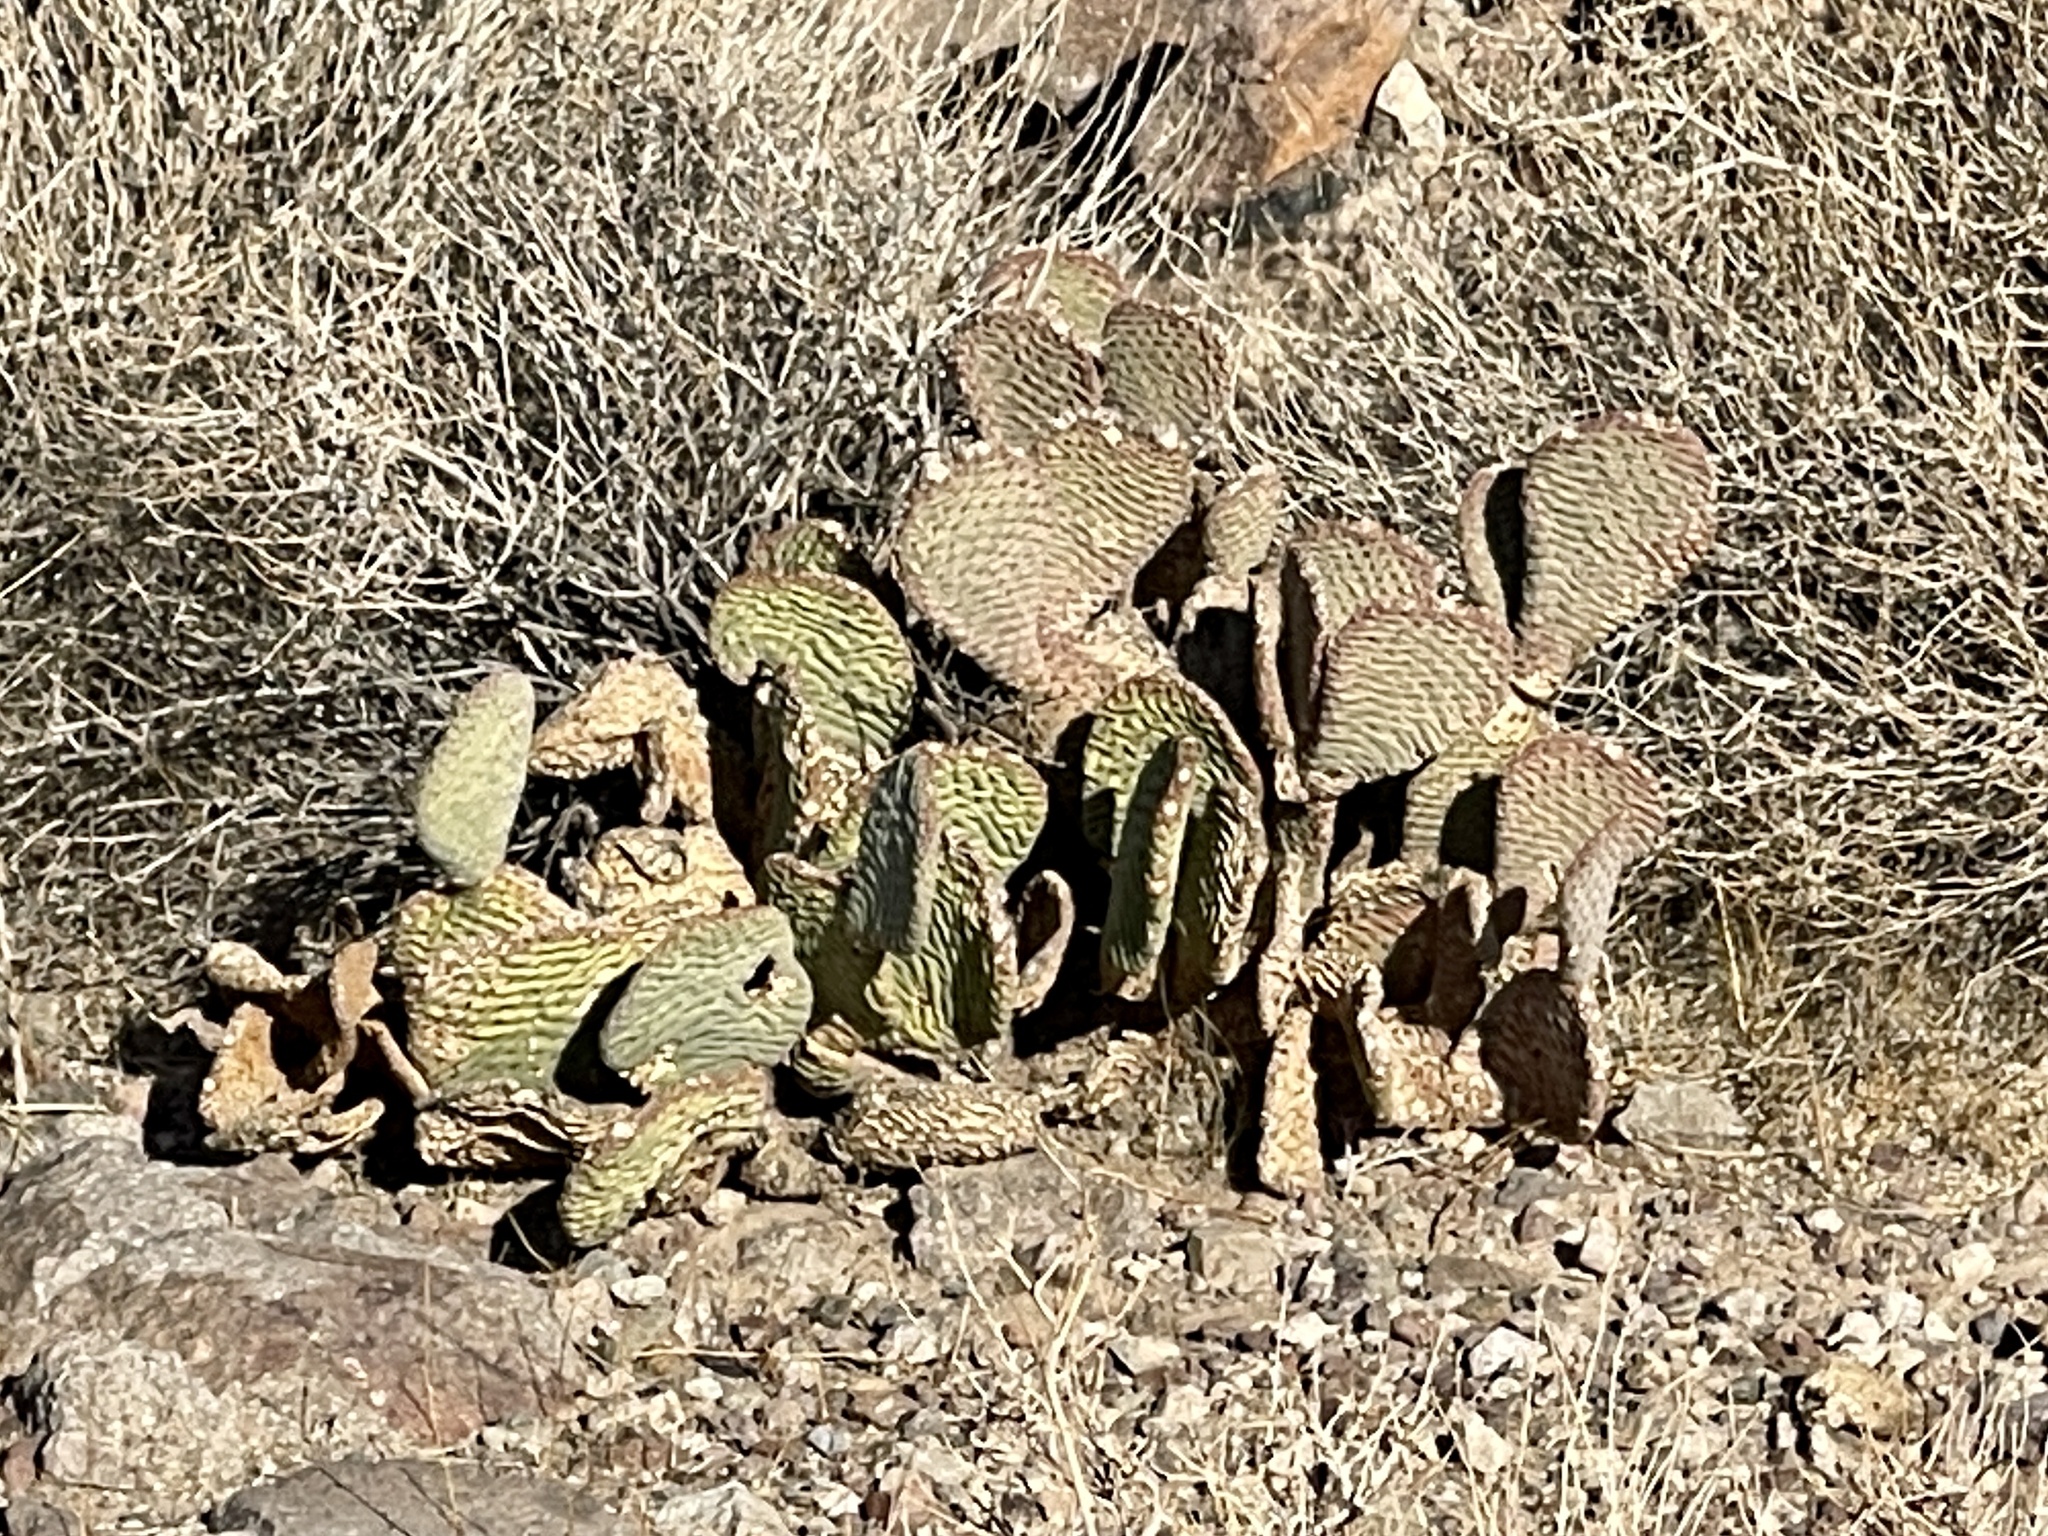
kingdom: Plantae
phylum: Tracheophyta
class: Magnoliopsida
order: Caryophyllales
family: Cactaceae
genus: Opuntia
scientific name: Opuntia basilaris
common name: Beavertail prickly-pear
